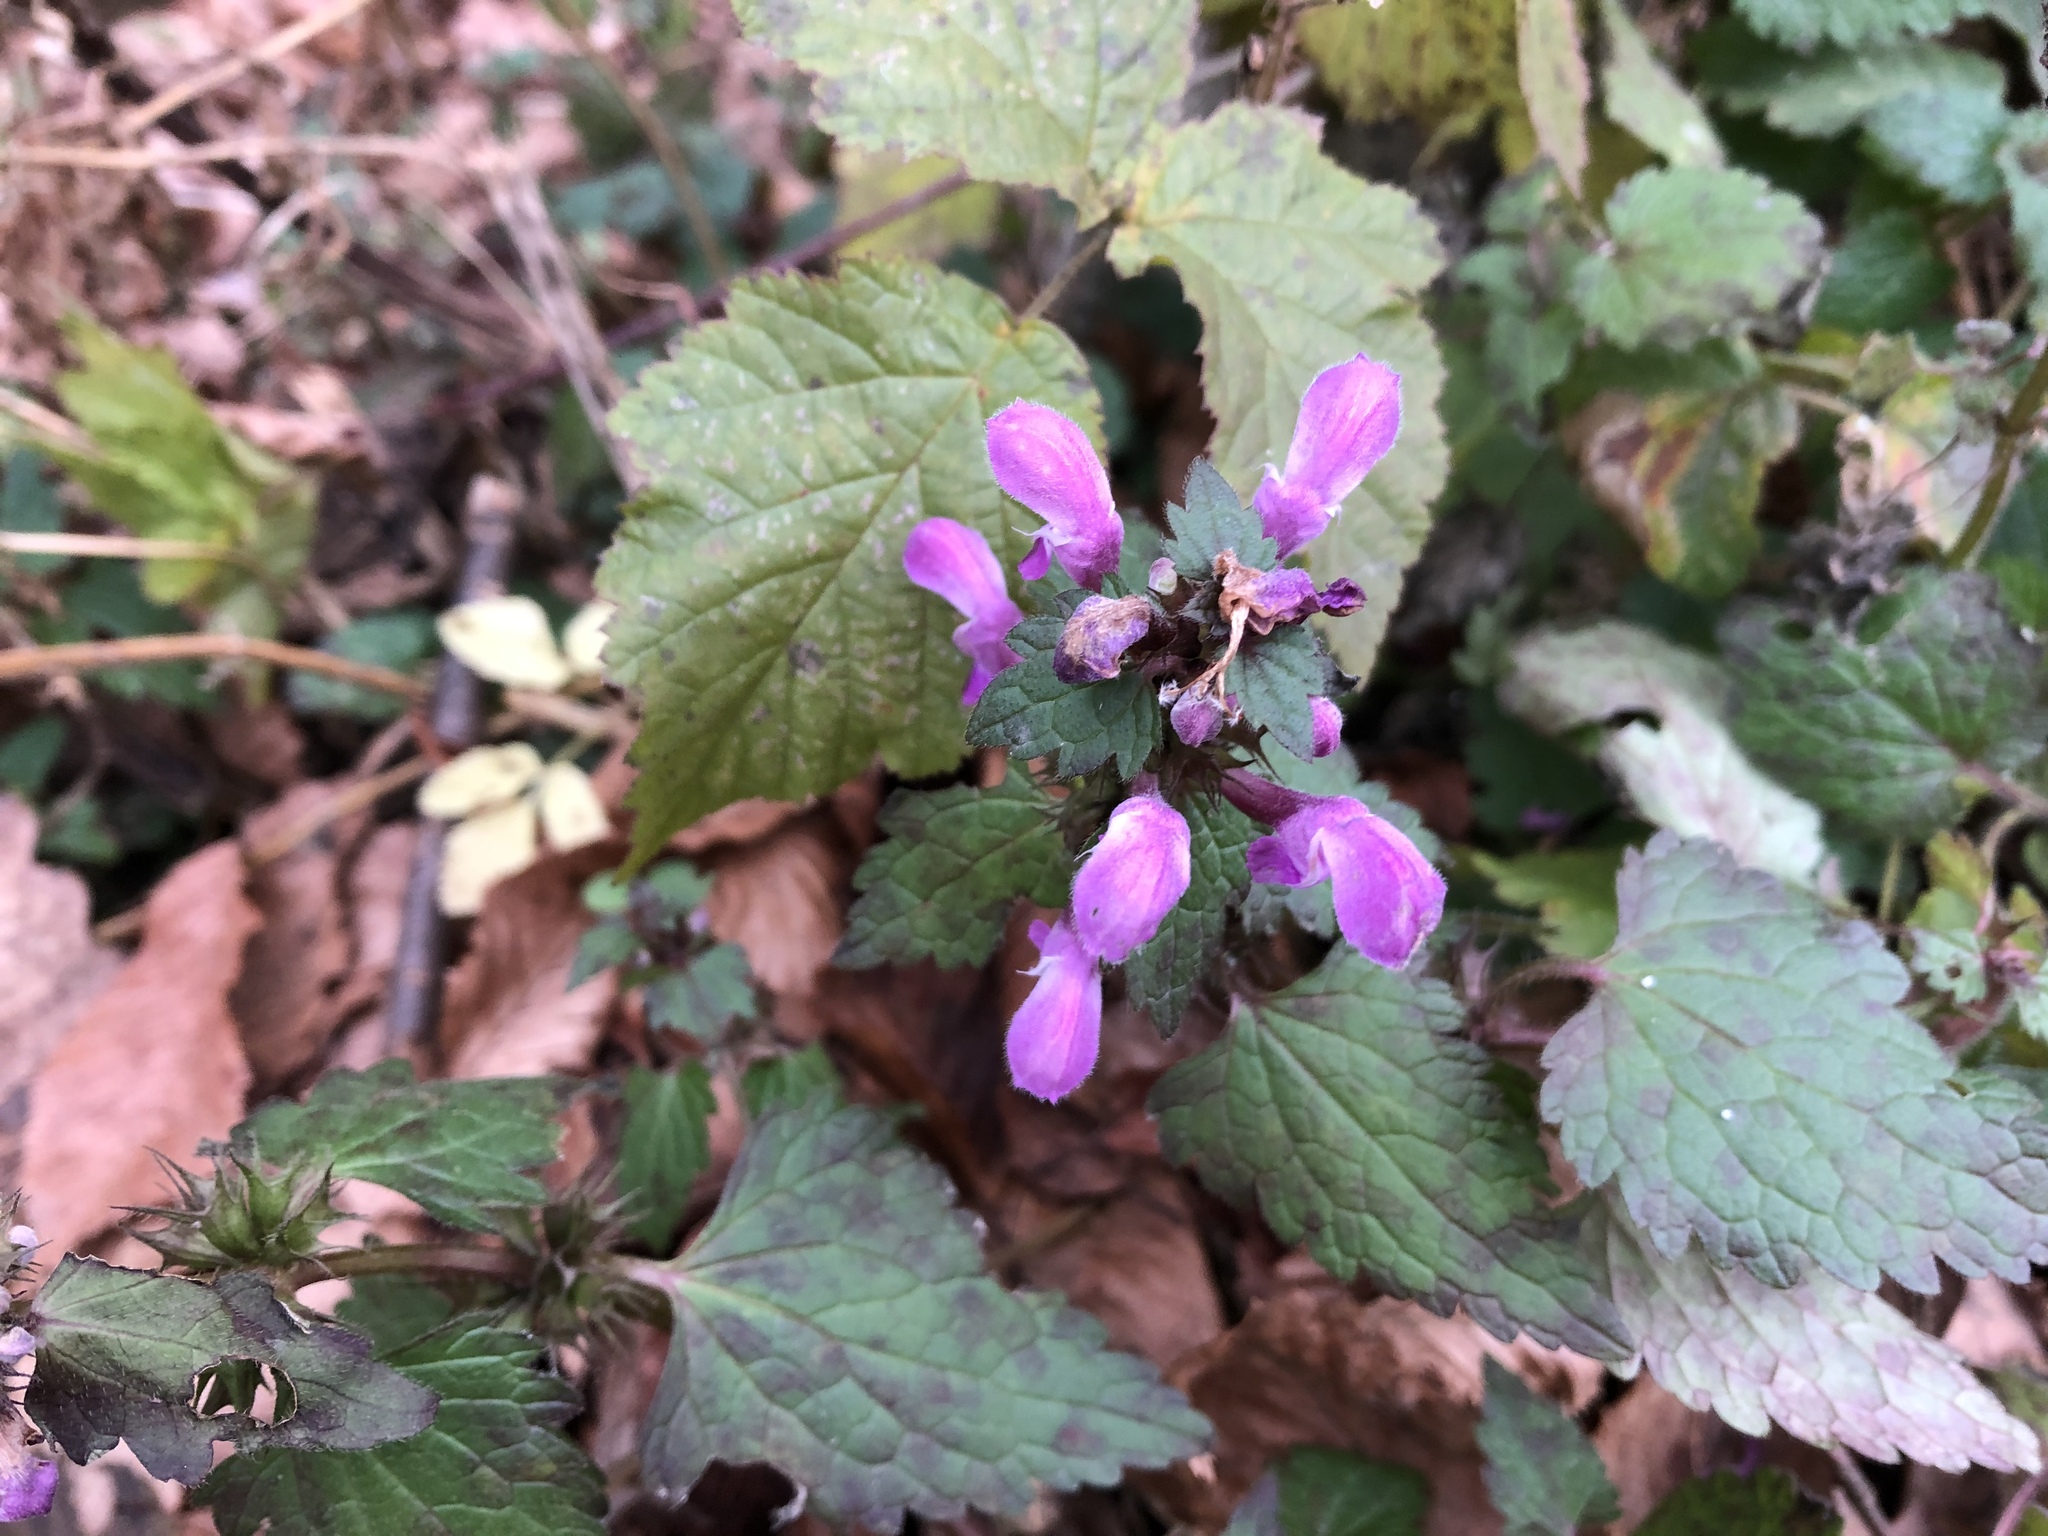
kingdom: Plantae
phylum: Tracheophyta
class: Magnoliopsida
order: Lamiales
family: Lamiaceae
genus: Lamium
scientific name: Lamium maculatum
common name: Spotted dead-nettle
